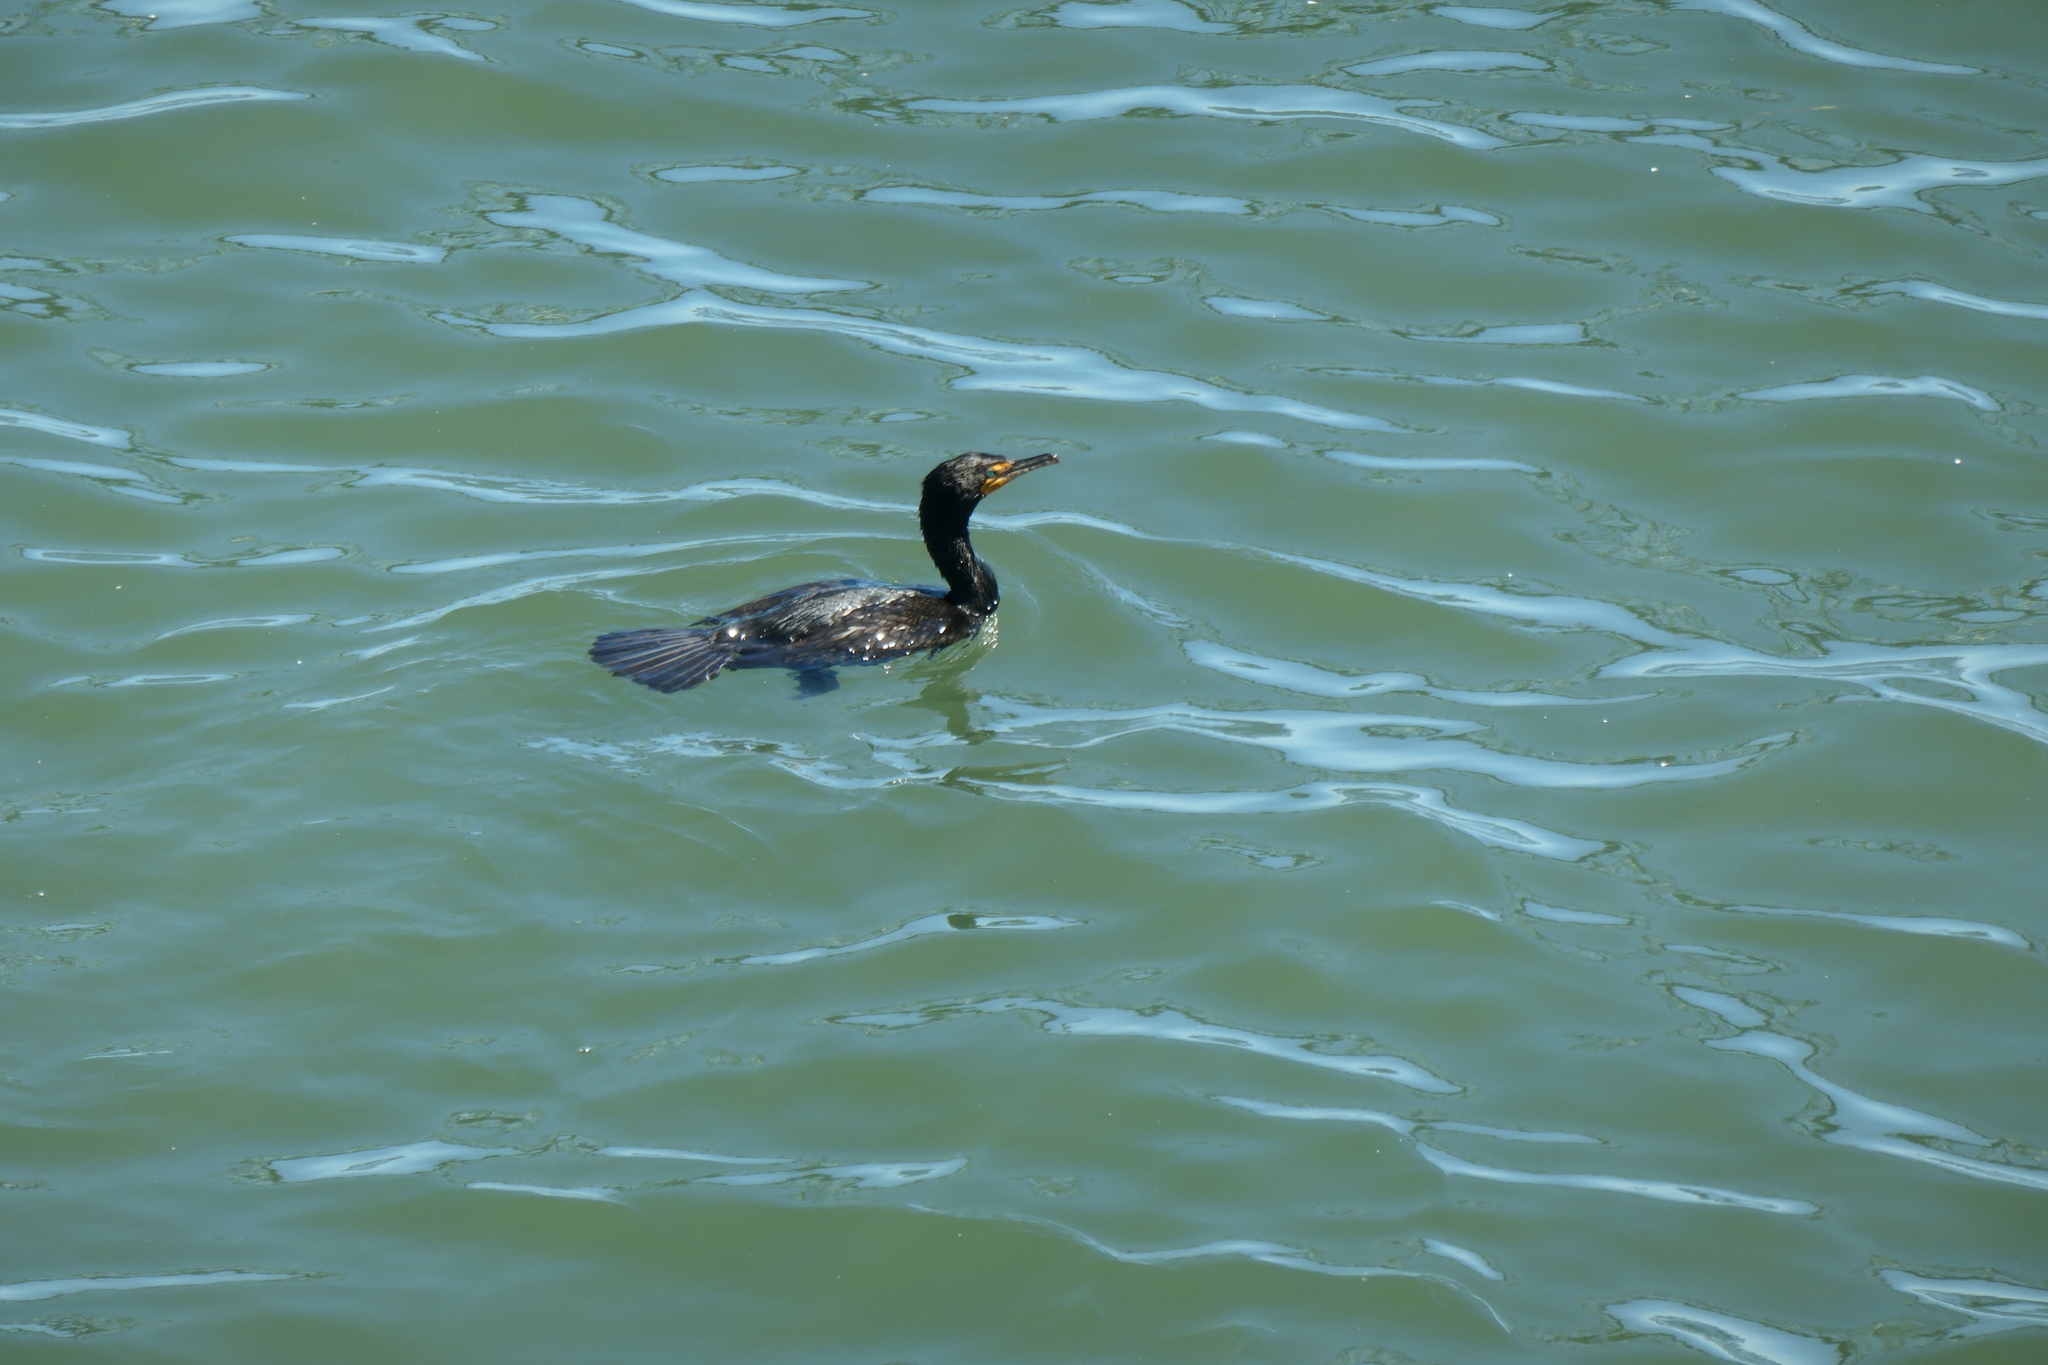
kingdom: Animalia
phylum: Chordata
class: Aves
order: Suliformes
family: Phalacrocoracidae
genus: Phalacrocorax
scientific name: Phalacrocorax auritus
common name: Double-crested cormorant
